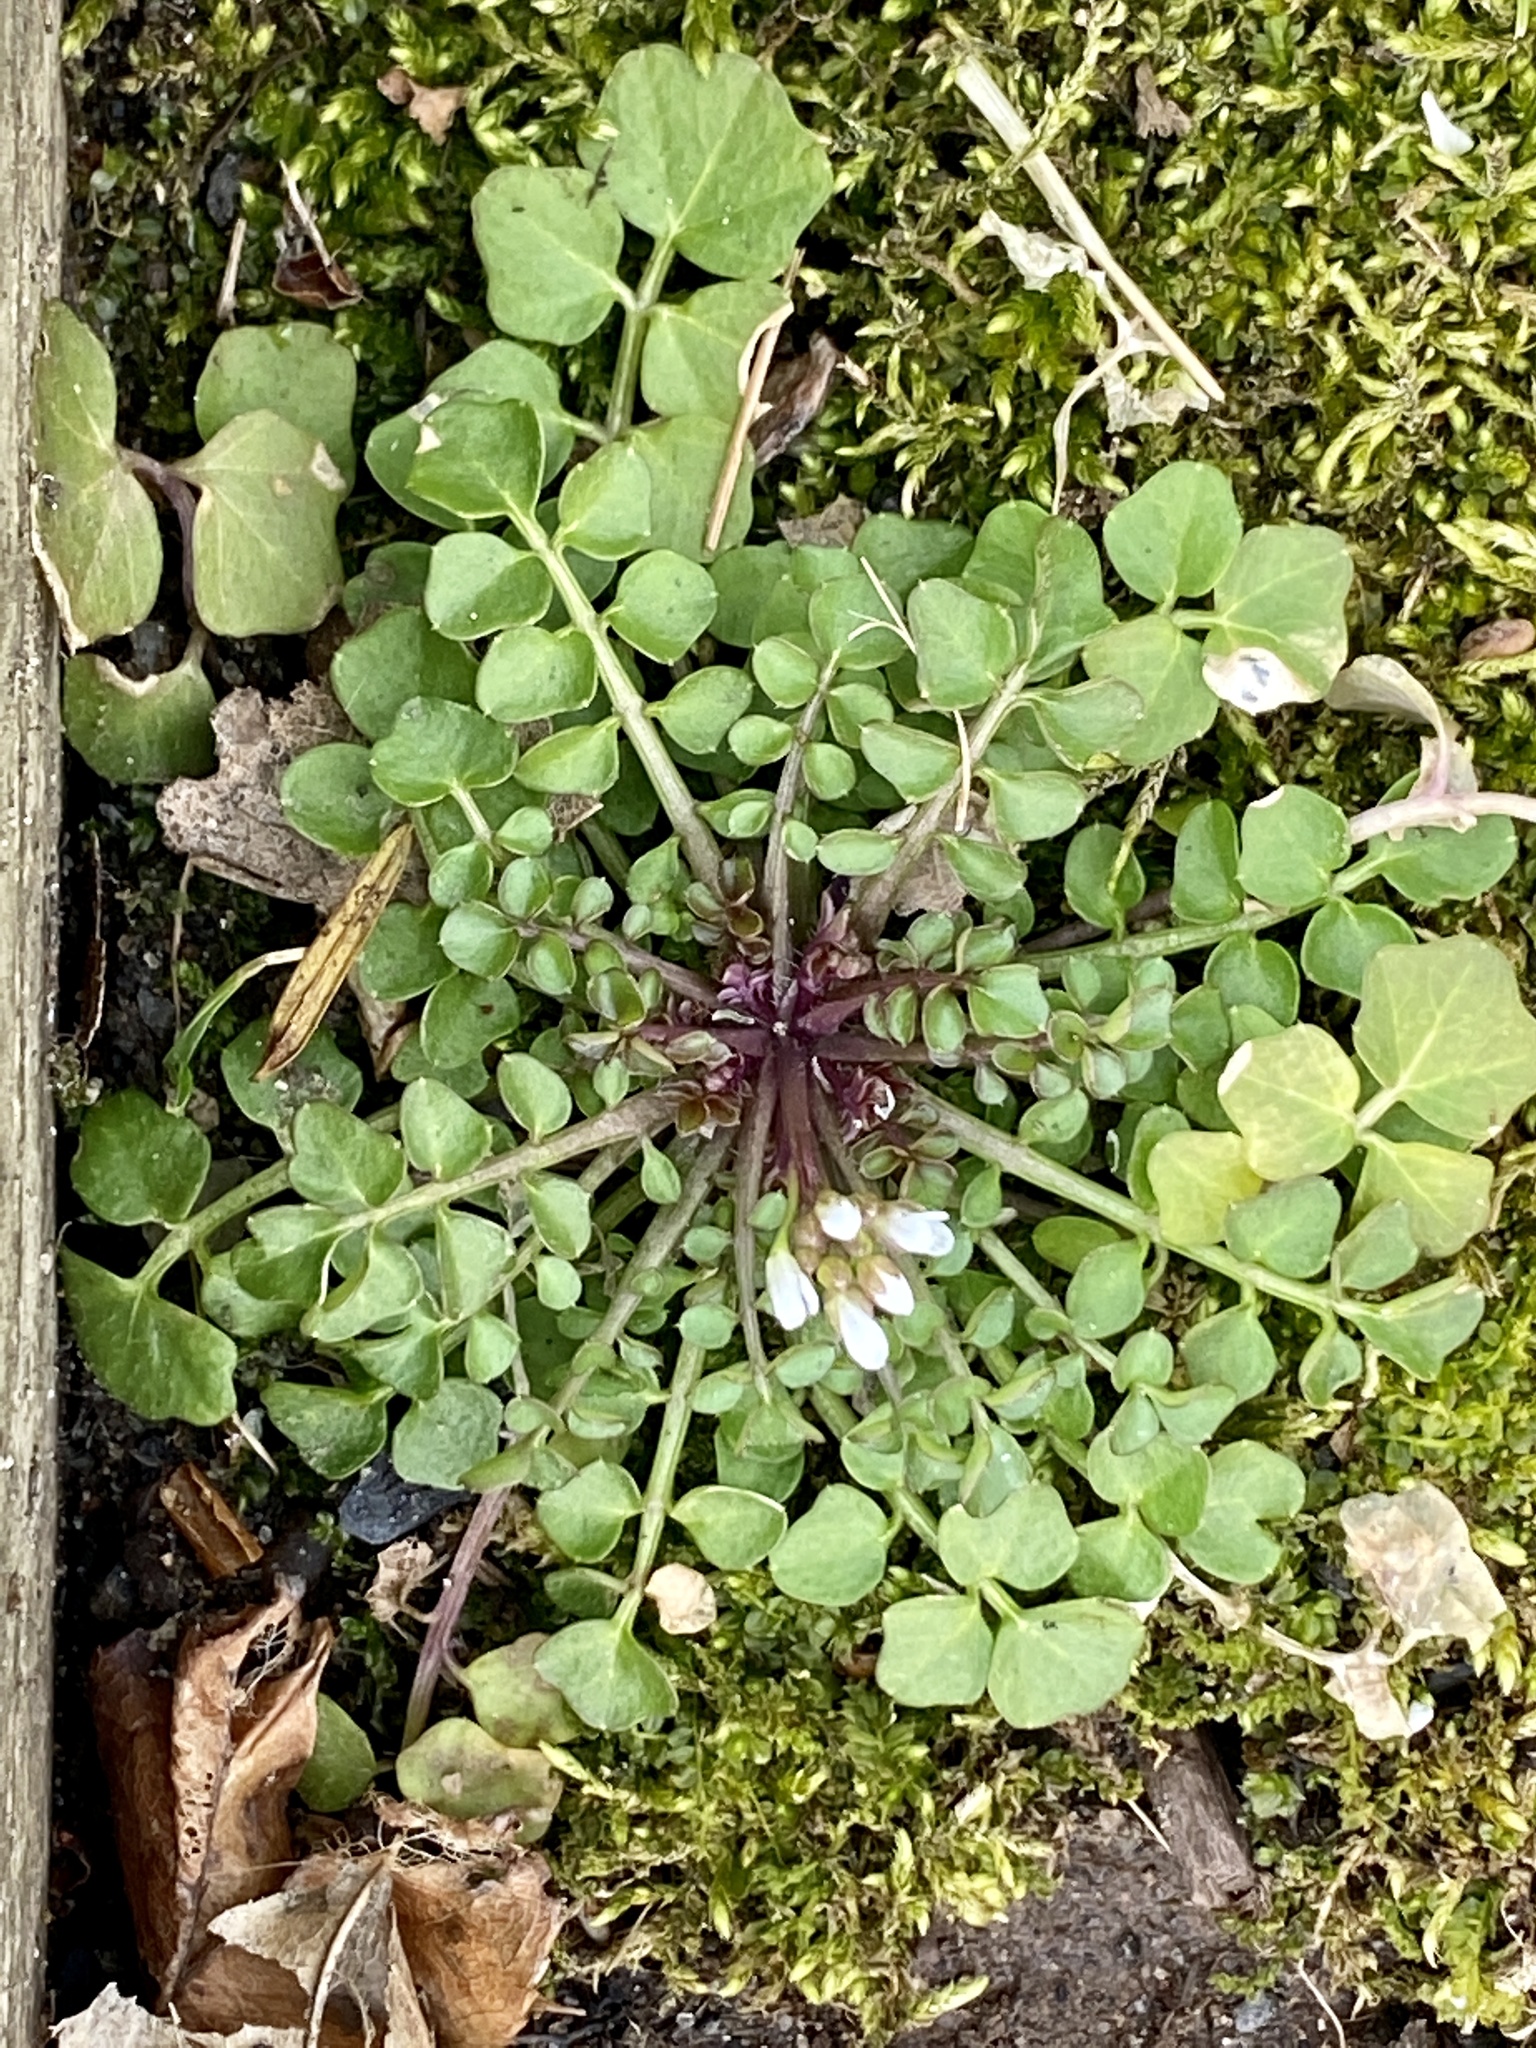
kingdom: Plantae
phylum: Tracheophyta
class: Magnoliopsida
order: Brassicales
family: Brassicaceae
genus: Cardamine
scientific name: Cardamine hirsuta
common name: Hairy bittercress
